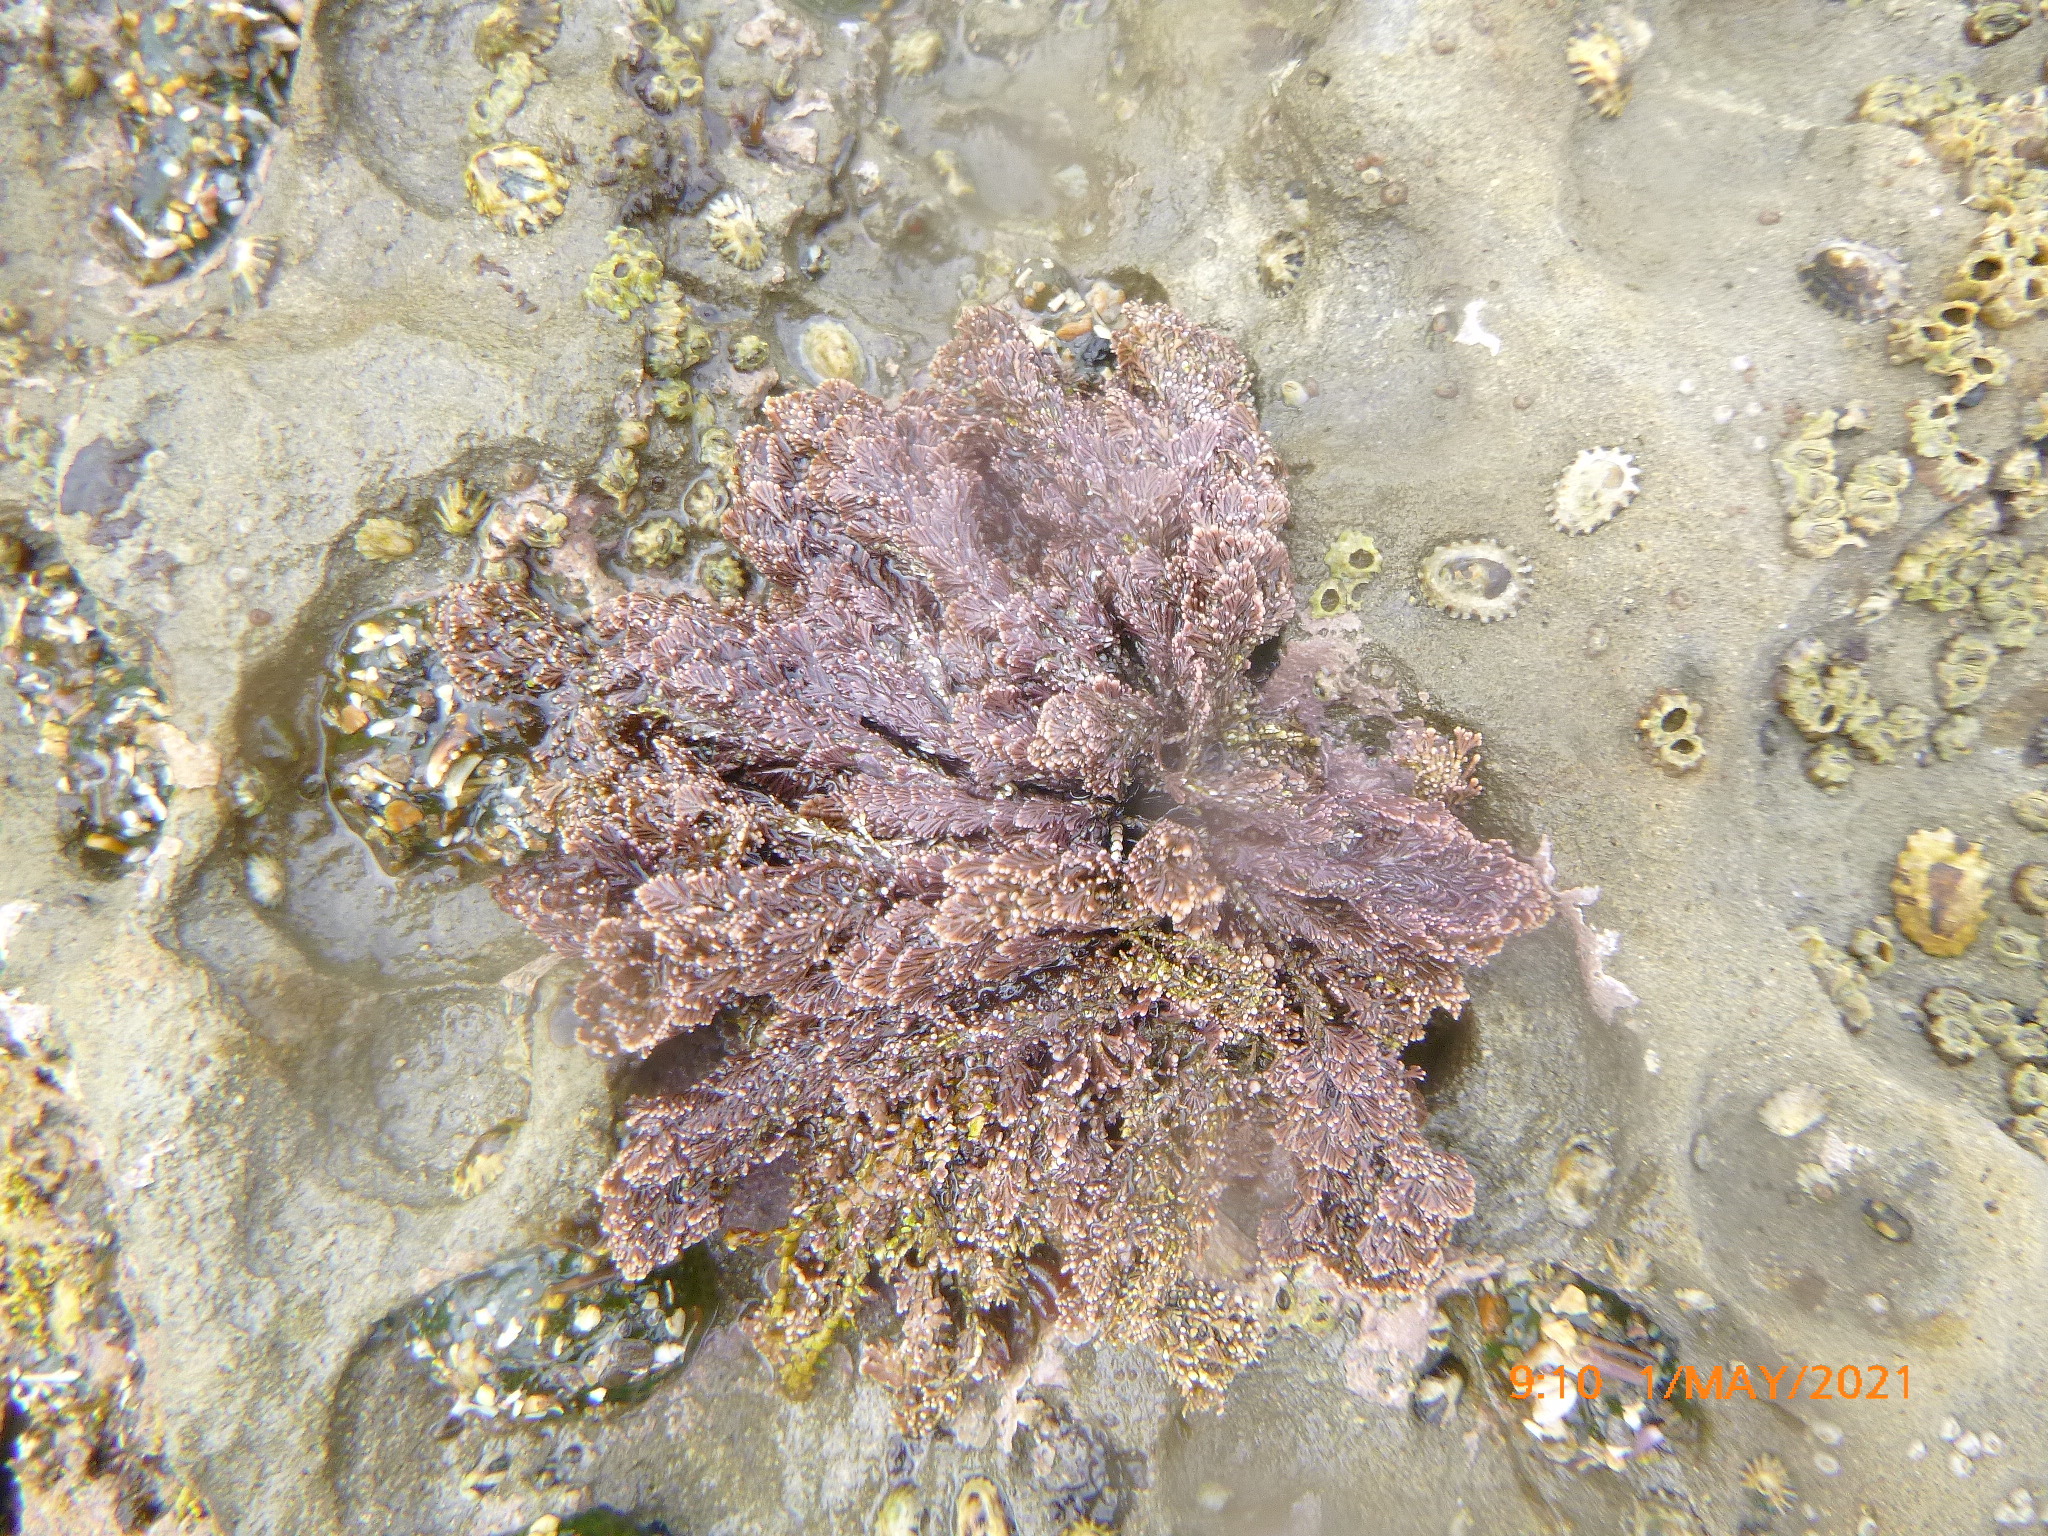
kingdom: Plantae
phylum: Rhodophyta
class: Florideophyceae
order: Corallinales
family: Corallinaceae
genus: Corallina
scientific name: Corallina officinalis
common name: Coral weed
